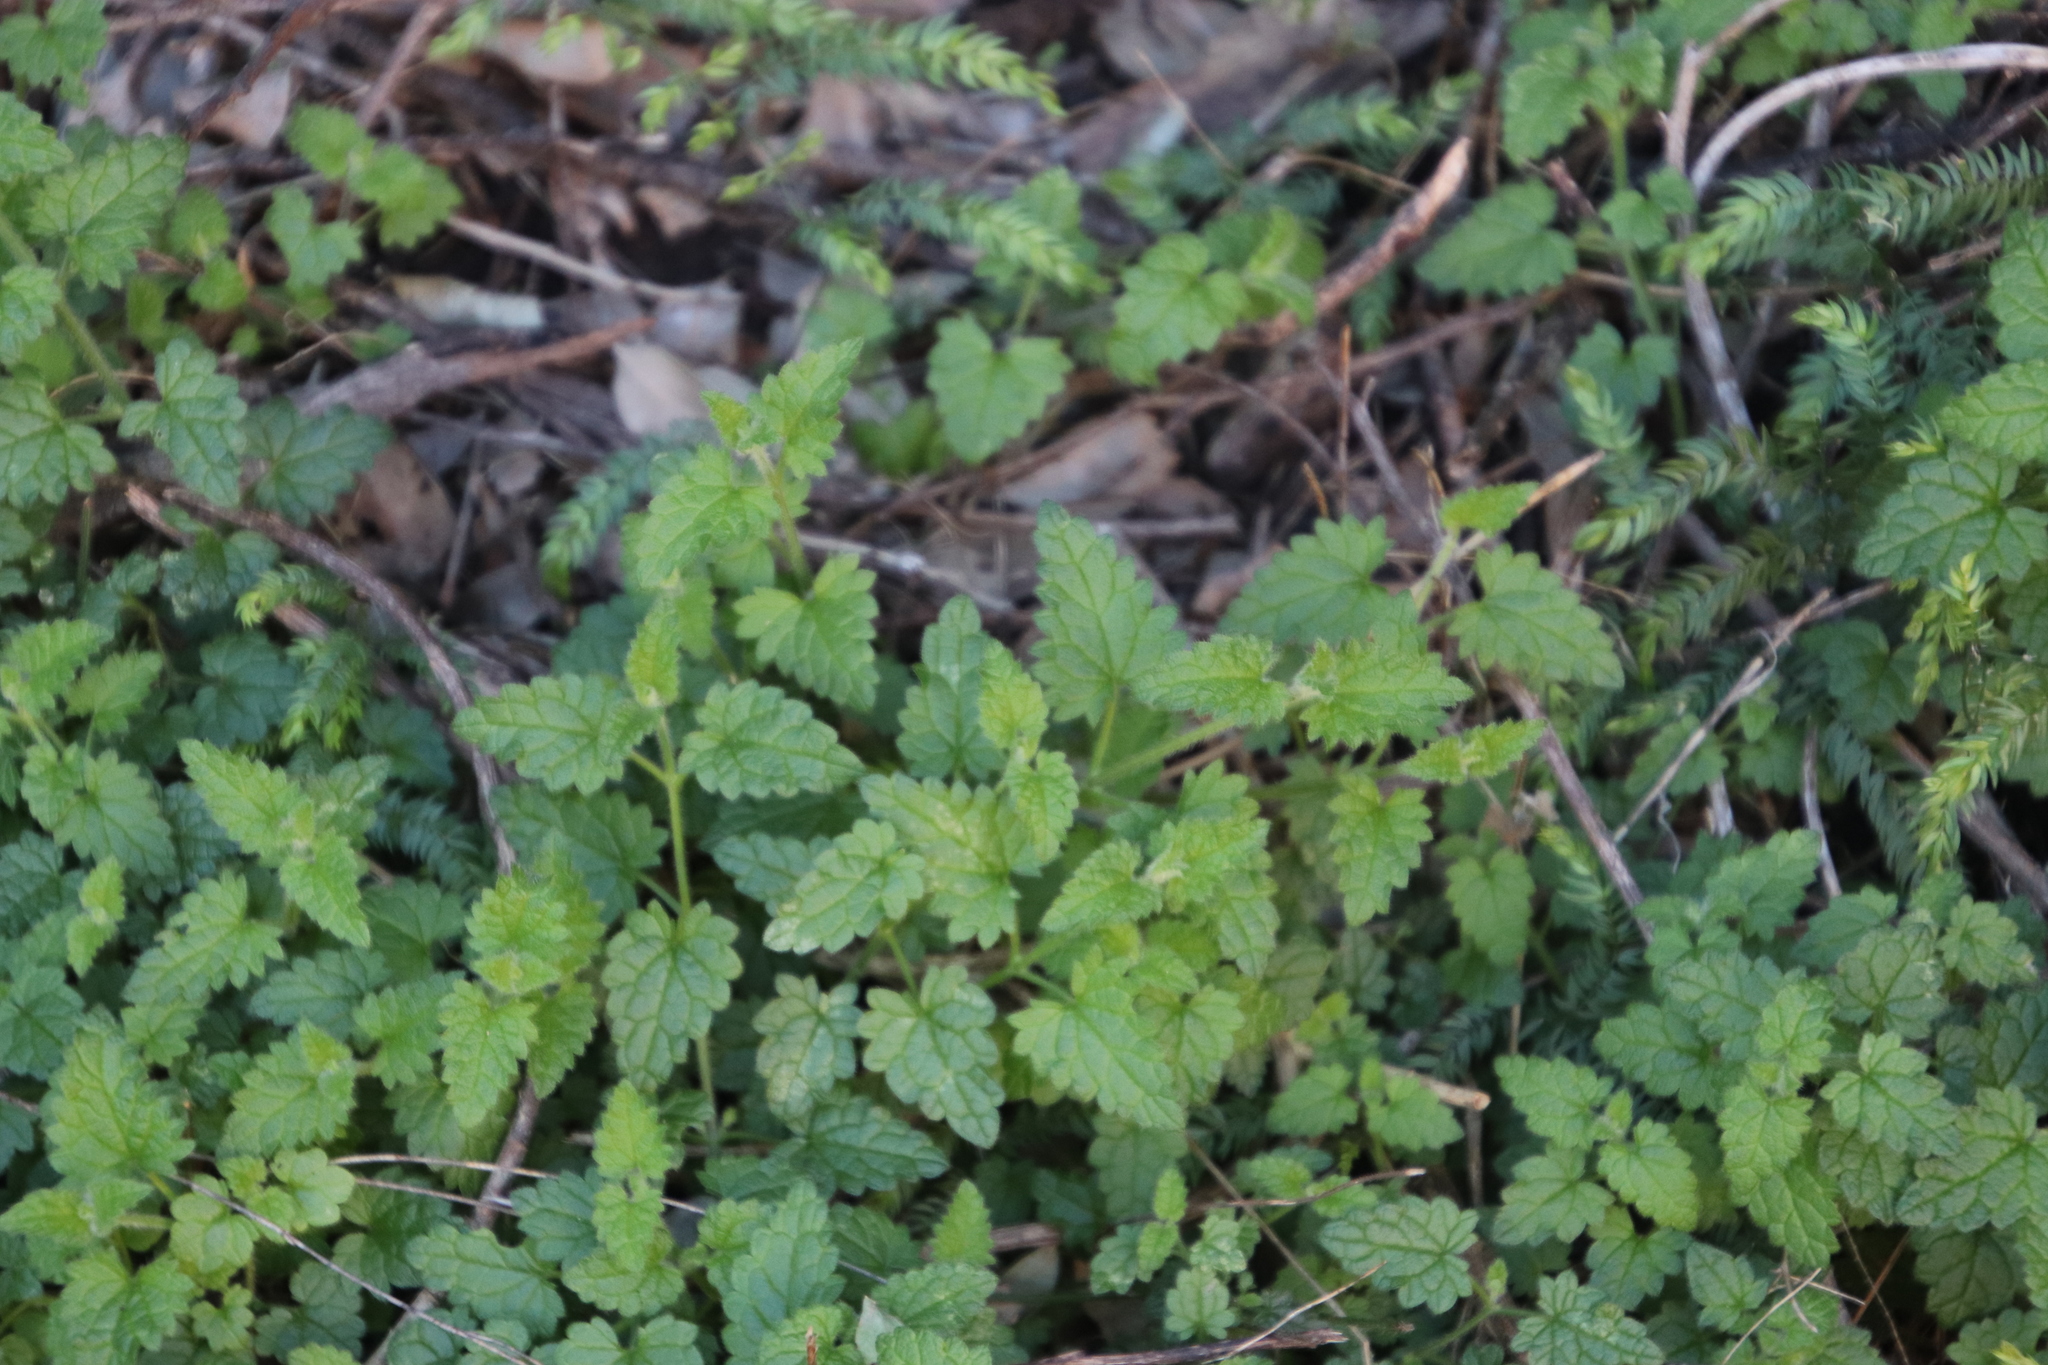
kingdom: Plantae
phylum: Tracheophyta
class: Magnoliopsida
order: Lamiales
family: Lamiaceae
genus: Stachys
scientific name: Stachys aethiopica
